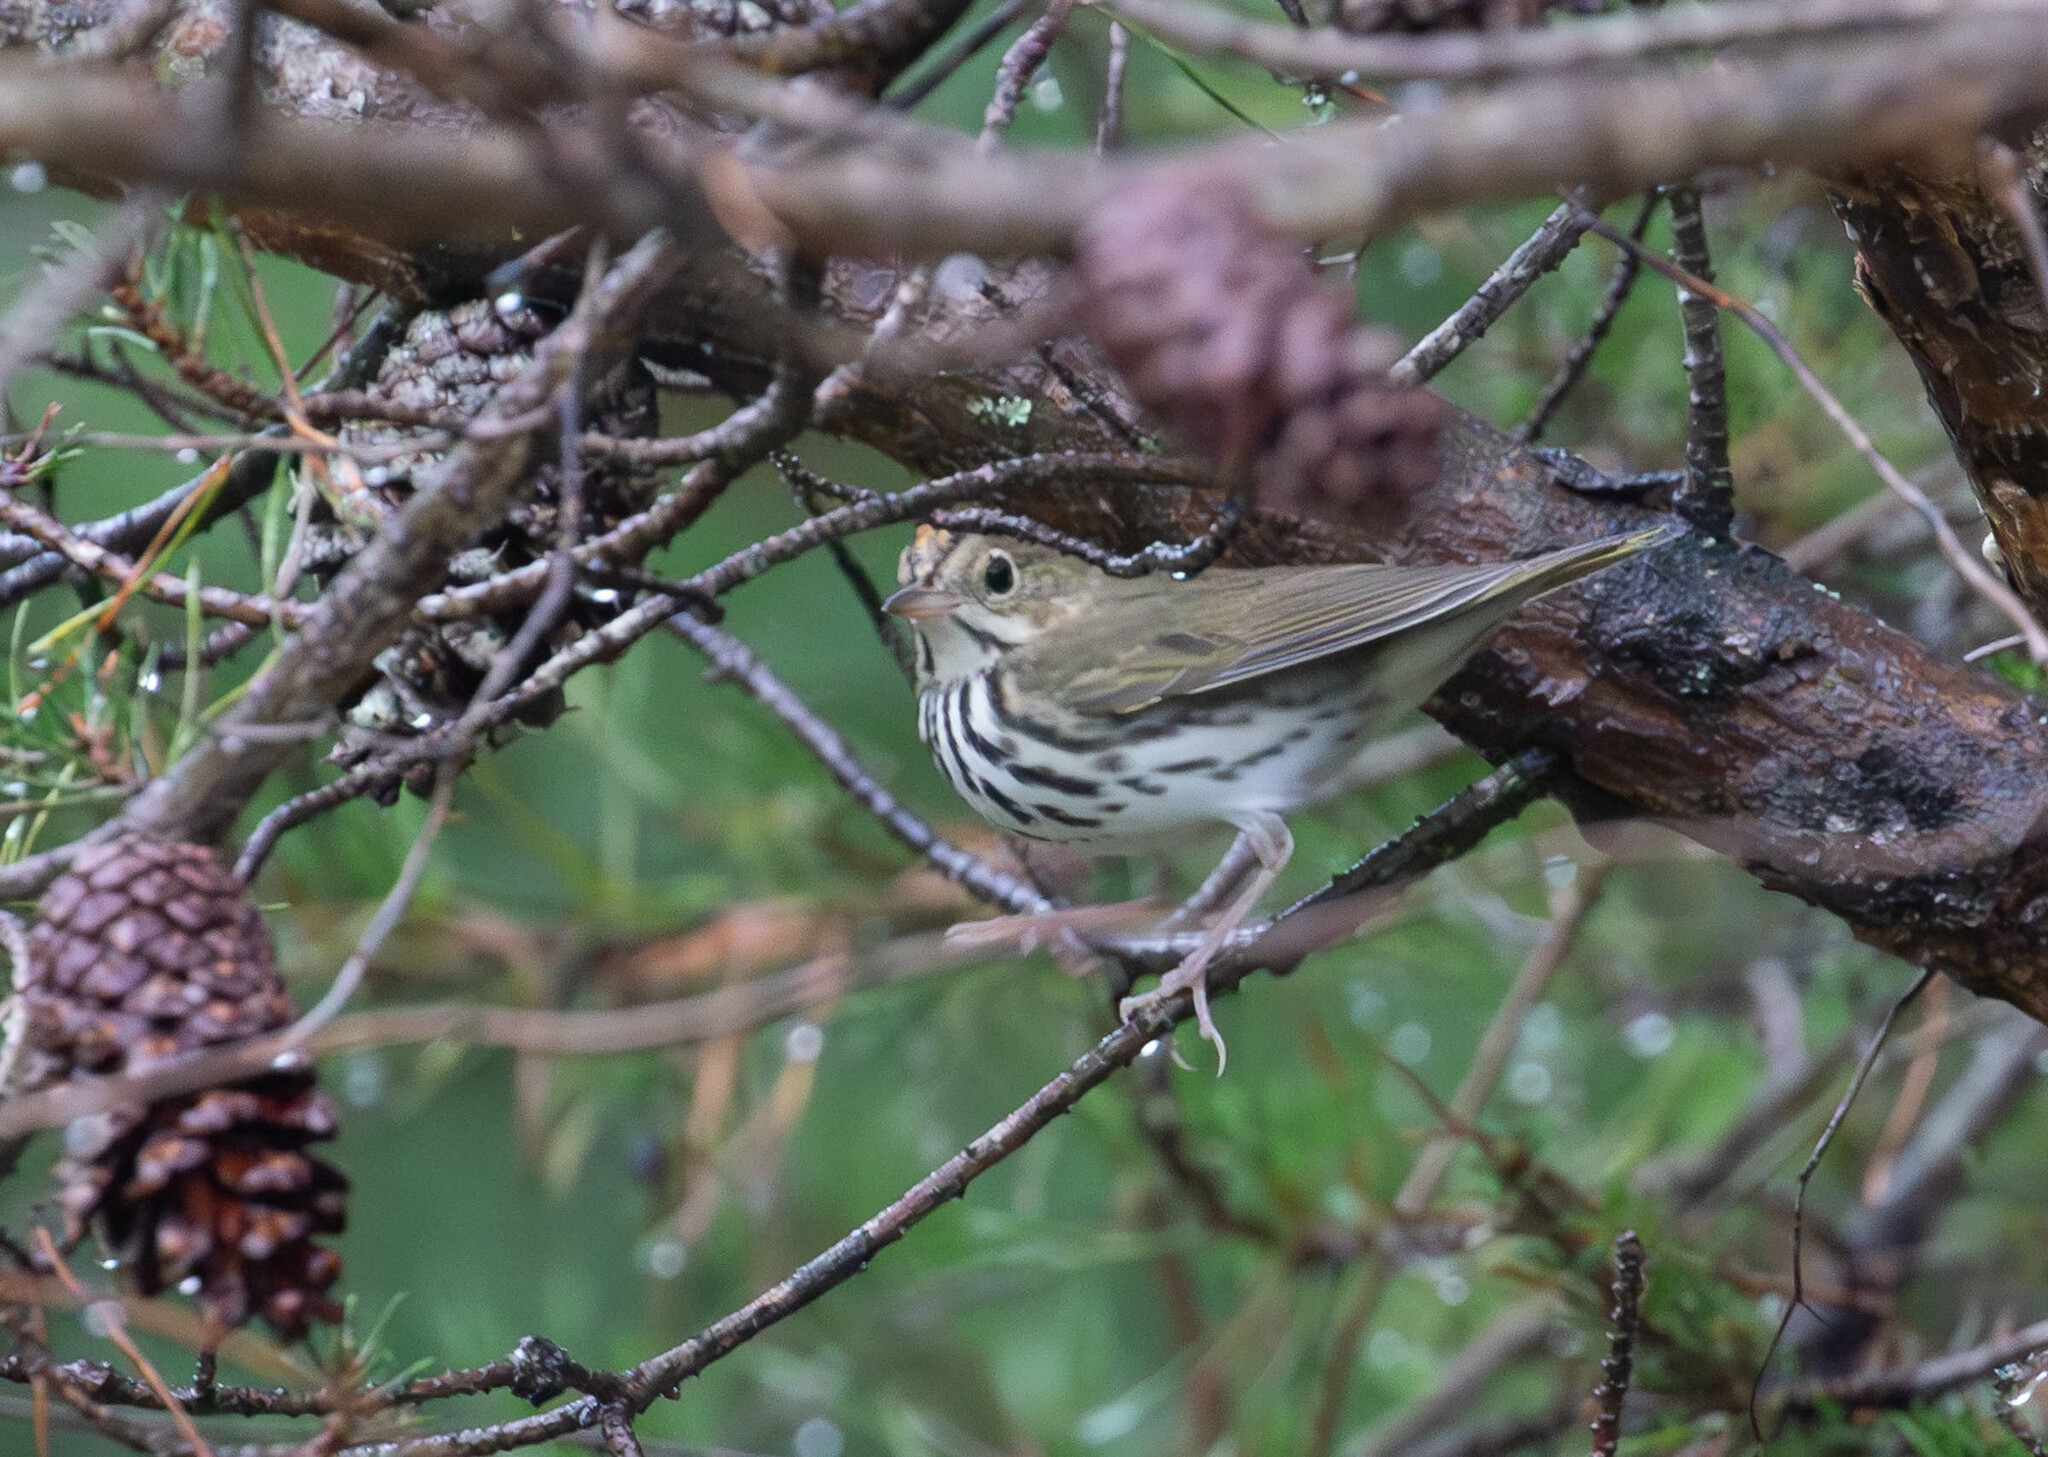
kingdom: Animalia
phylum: Chordata
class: Aves
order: Passeriformes
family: Parulidae
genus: Seiurus
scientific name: Seiurus aurocapilla
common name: Ovenbird
